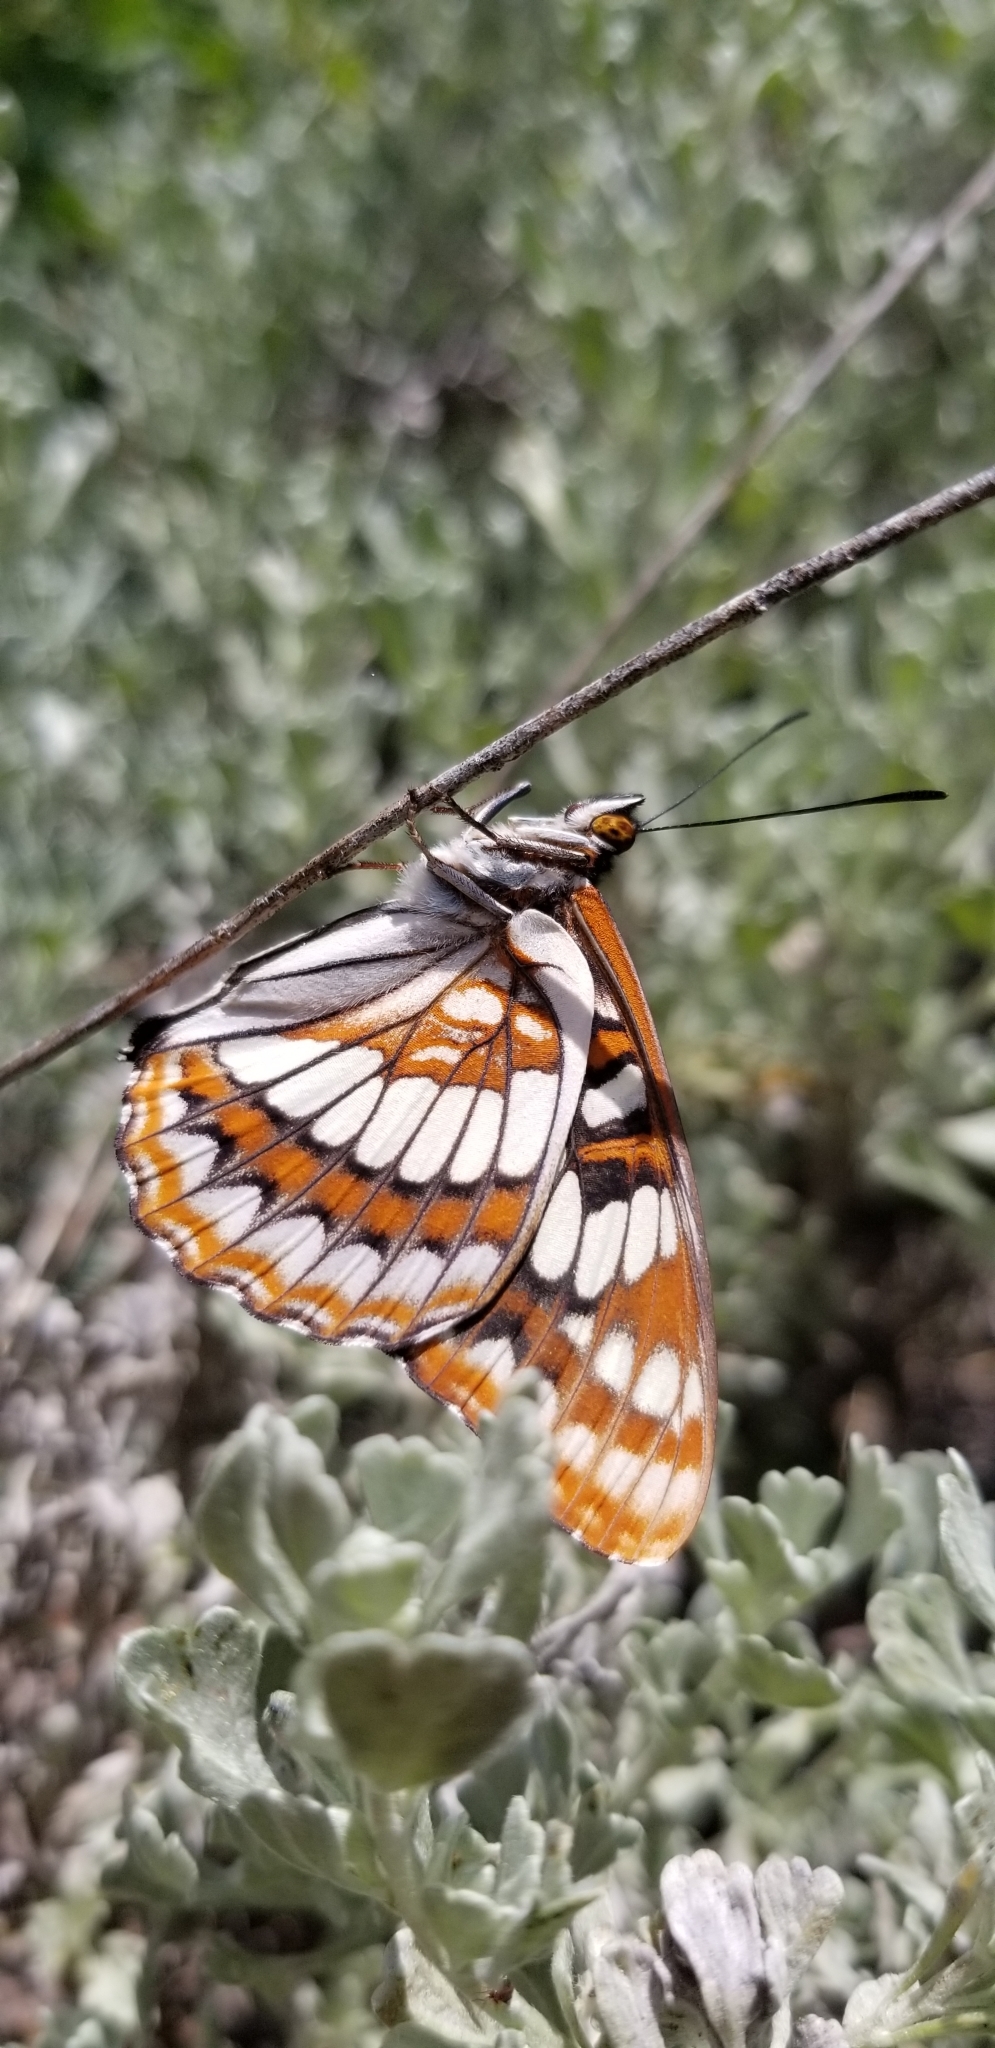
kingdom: Animalia
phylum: Arthropoda
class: Insecta
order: Lepidoptera
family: Nymphalidae
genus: Limenitis
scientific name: Limenitis lorquini
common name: Lorquin's admiral
